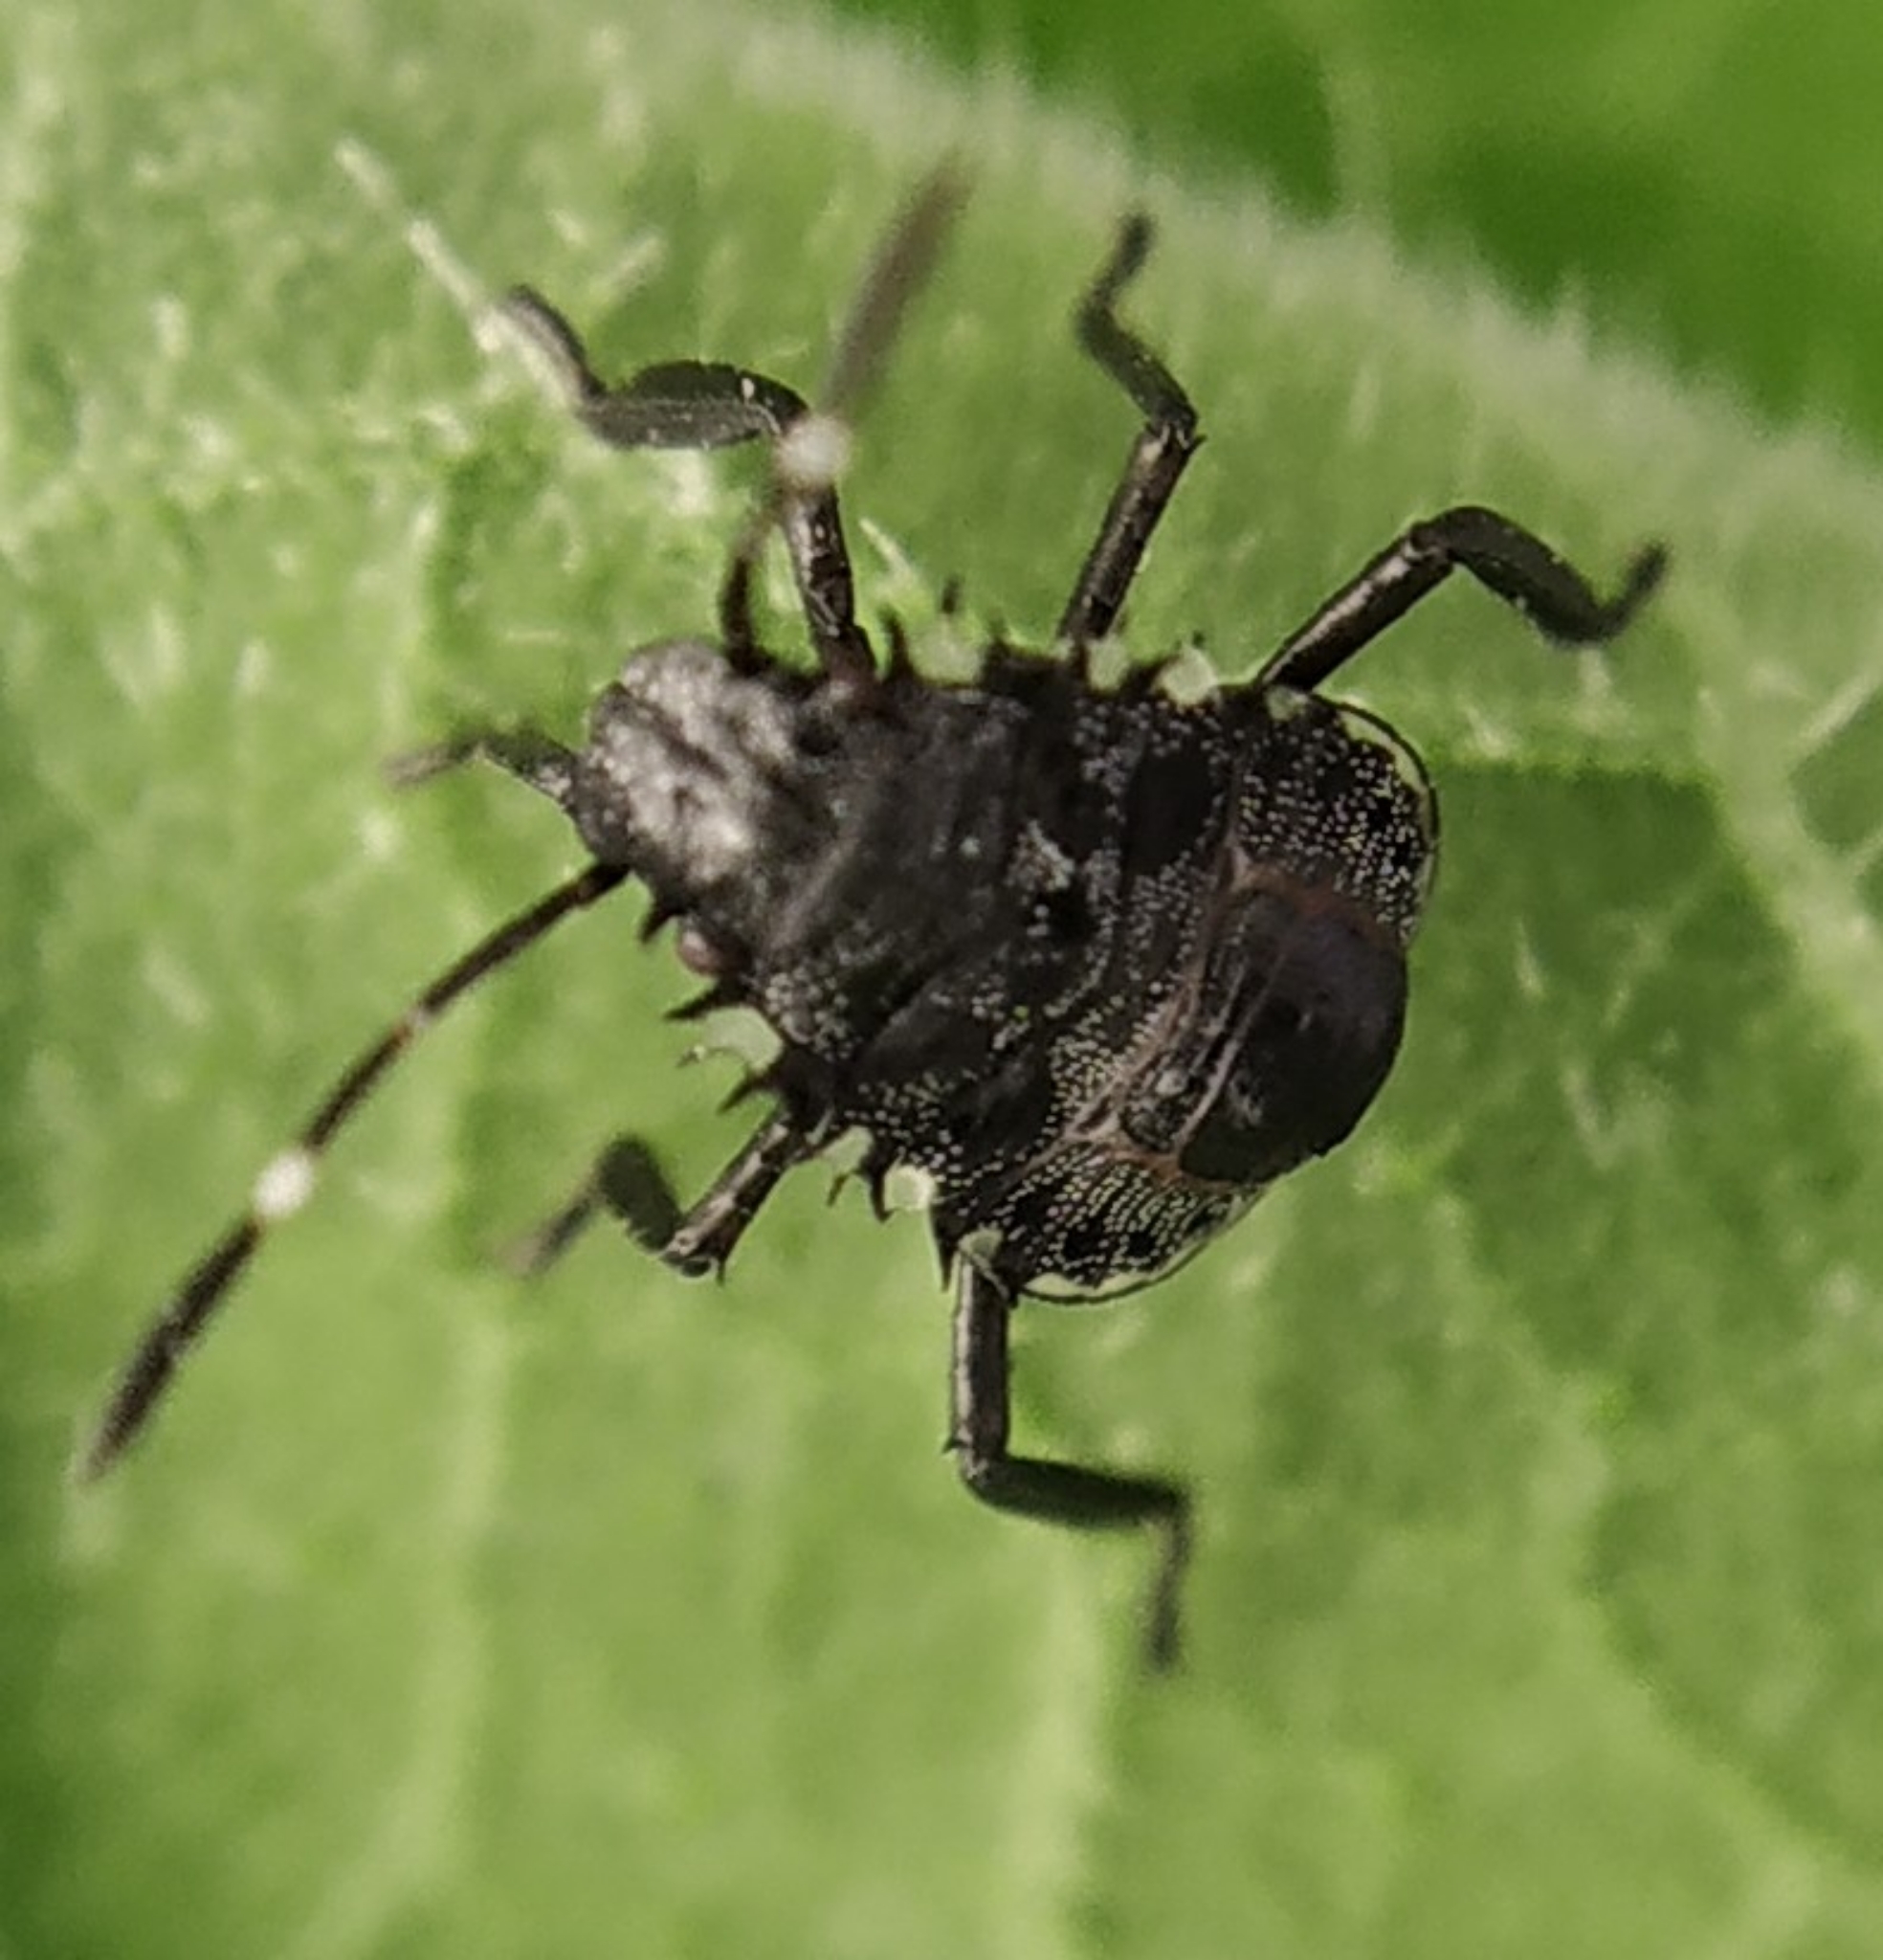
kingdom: Animalia
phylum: Arthropoda
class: Insecta
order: Hemiptera
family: Pentatomidae
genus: Halyomorpha
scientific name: Halyomorpha halys
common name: Brown marmorated stink bug
